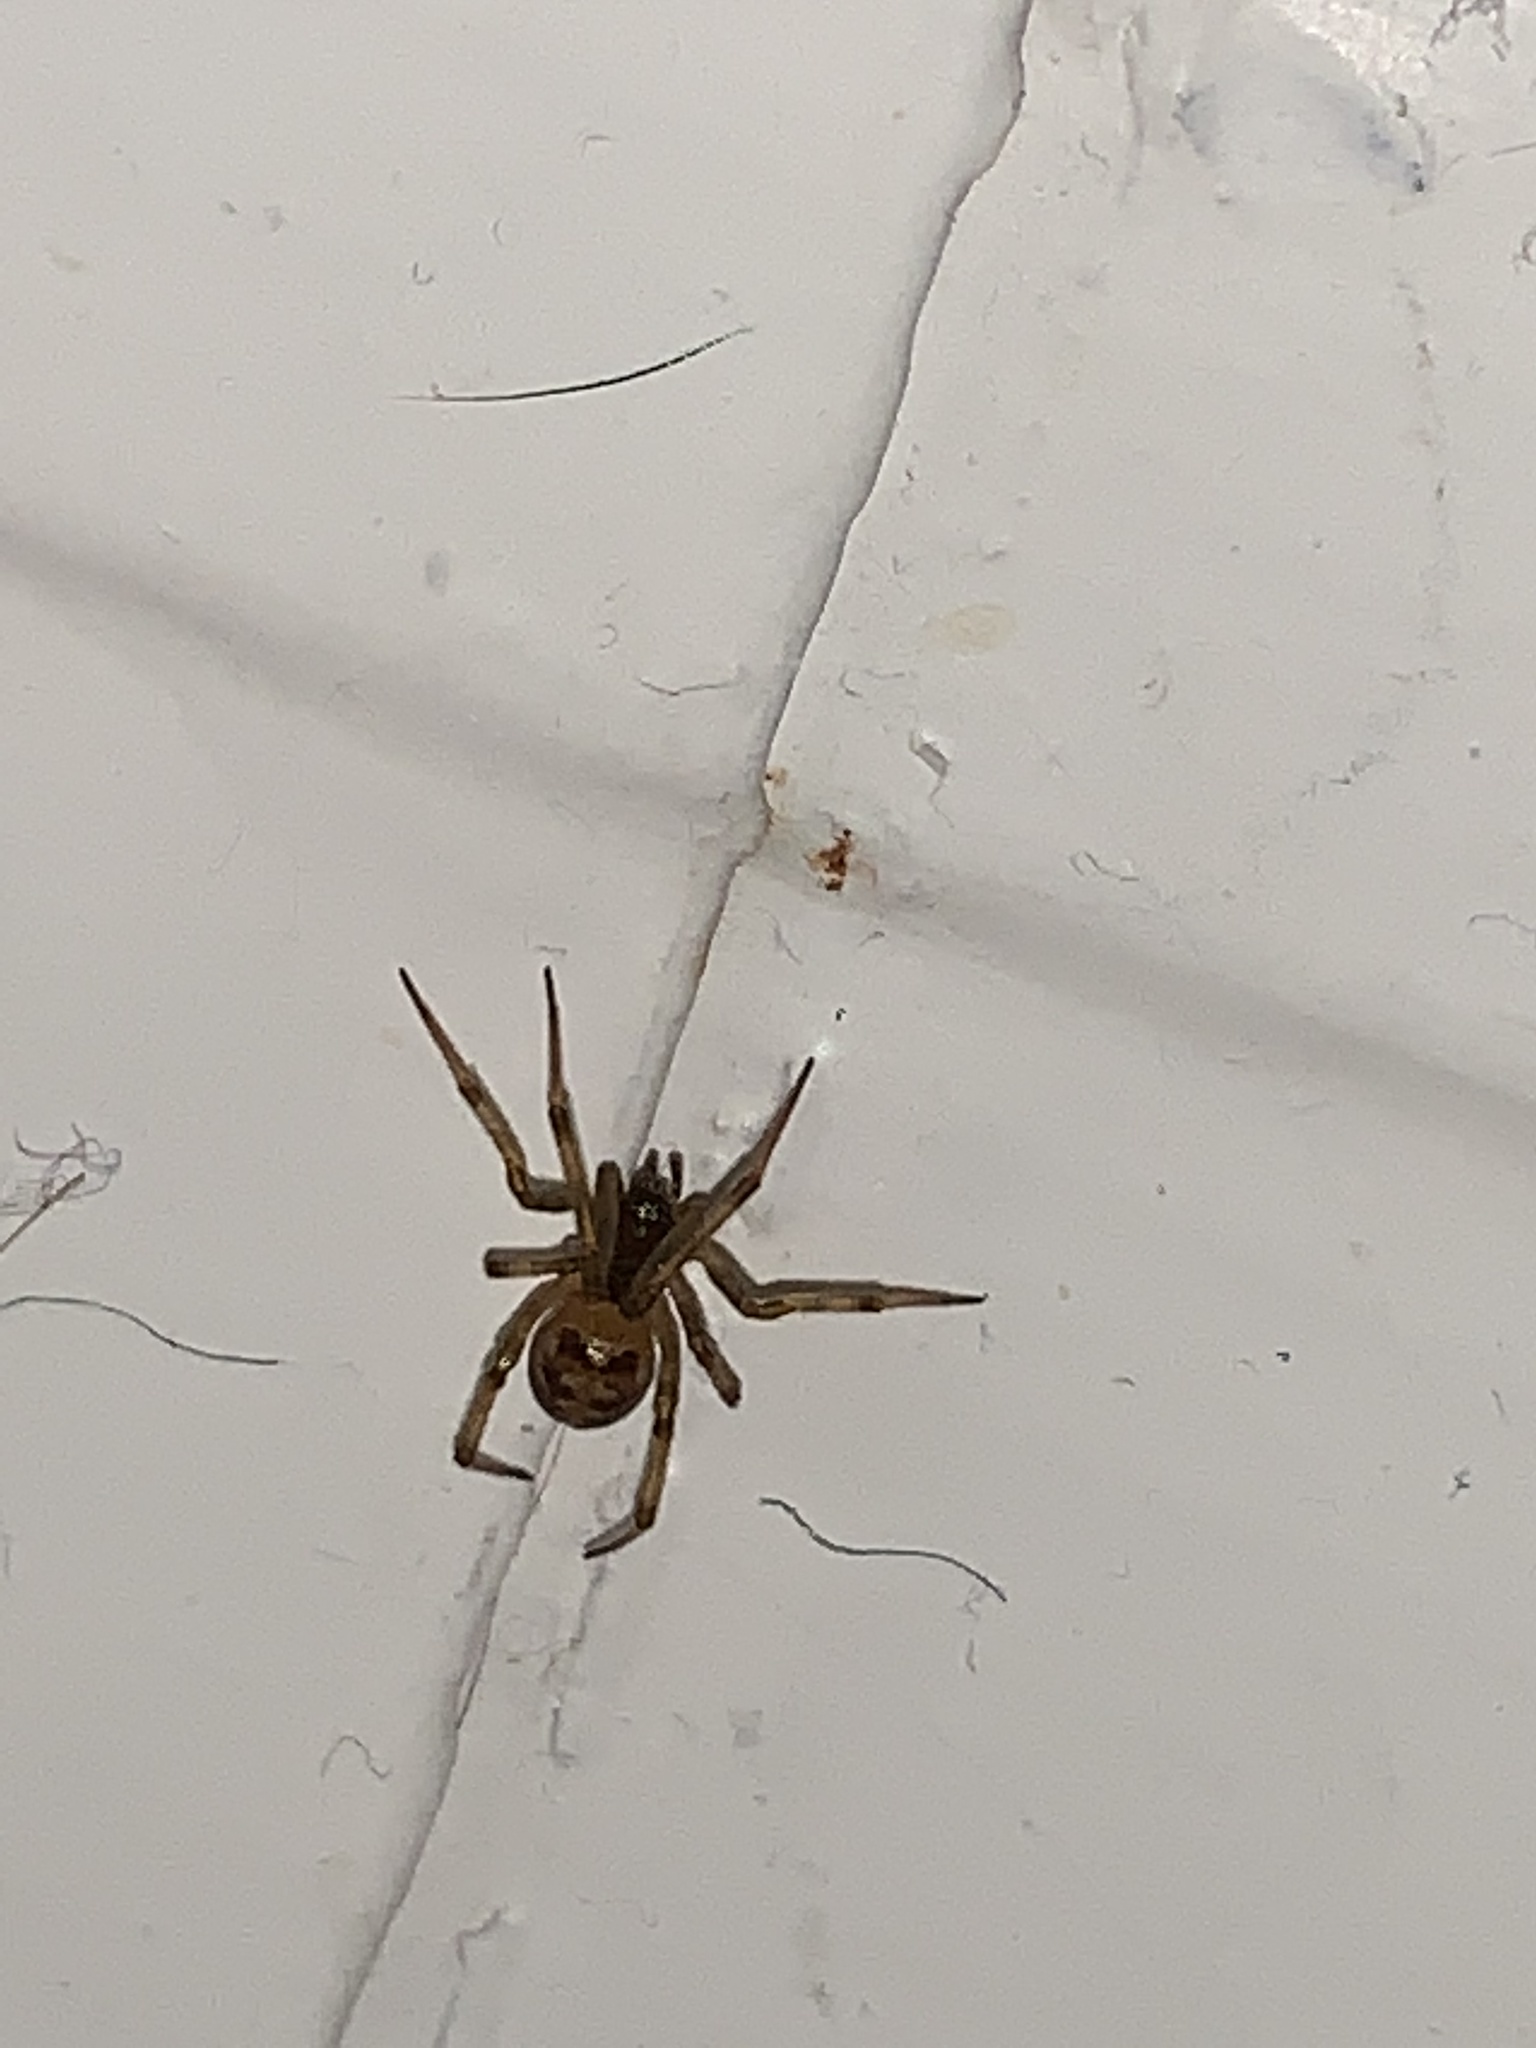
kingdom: Animalia
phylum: Arthropoda
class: Arachnida
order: Araneae
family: Theridiidae
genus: Steatoda
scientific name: Steatoda triangulosa
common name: Triangulate bud spider
